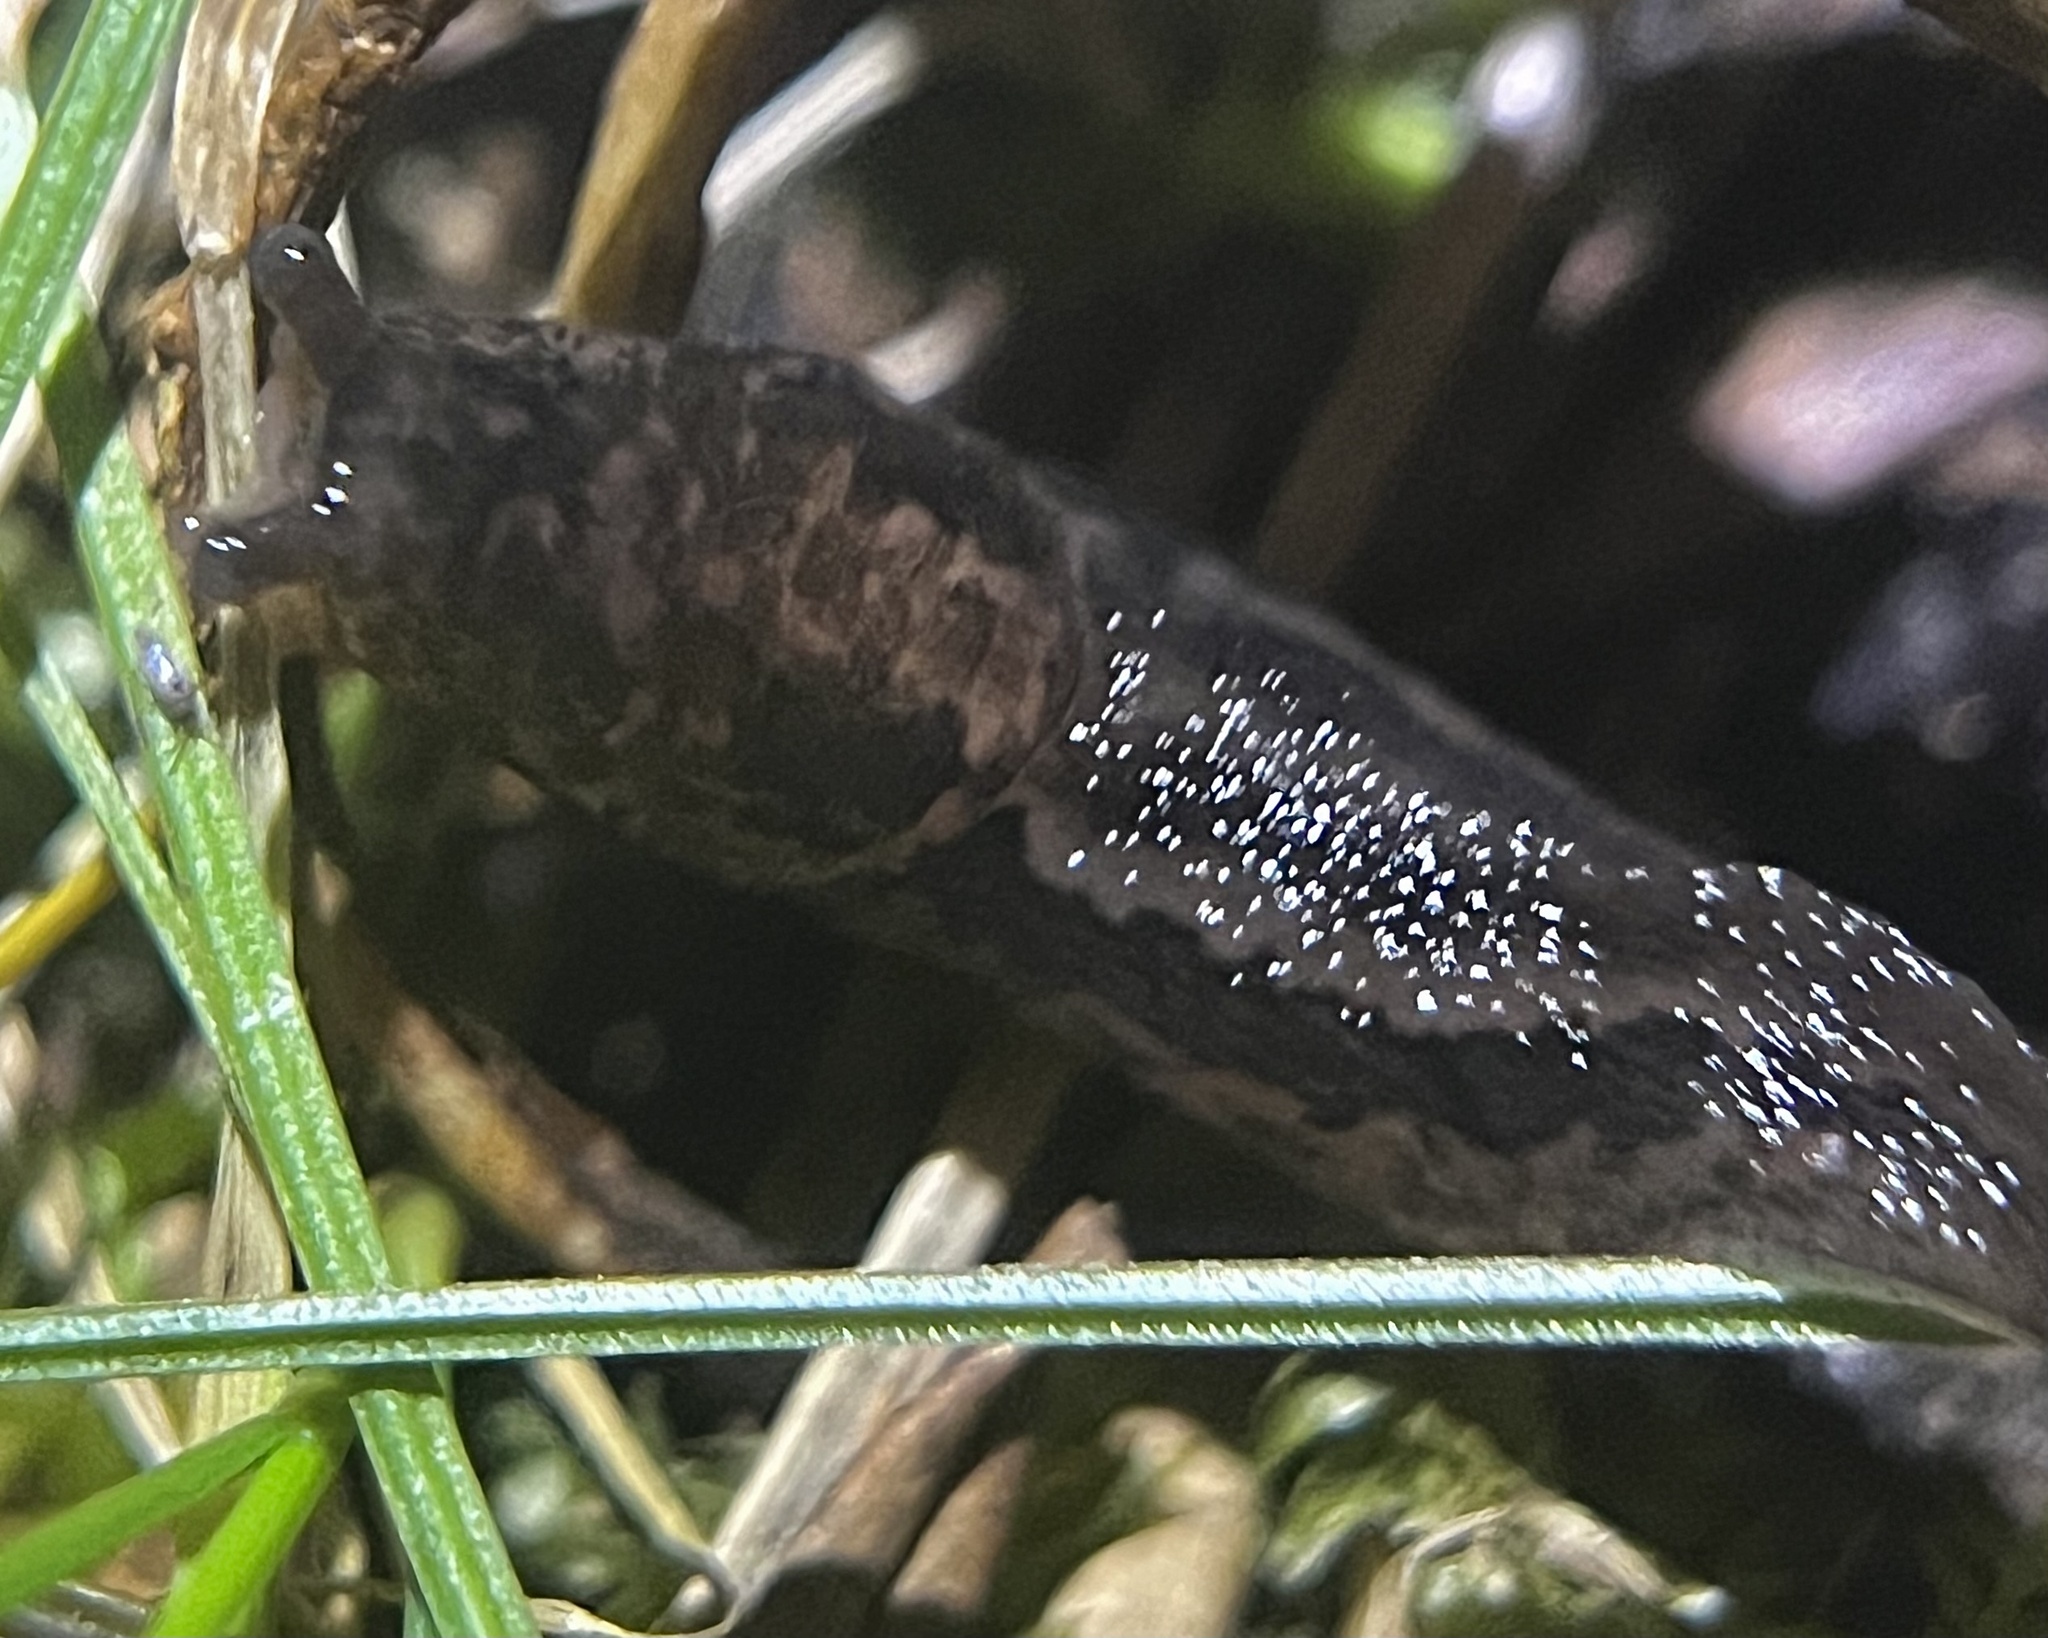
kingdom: Animalia
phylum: Mollusca
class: Gastropoda
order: Stylommatophora
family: Limacidae
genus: Limax
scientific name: Limax maximus
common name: Great grey slug
